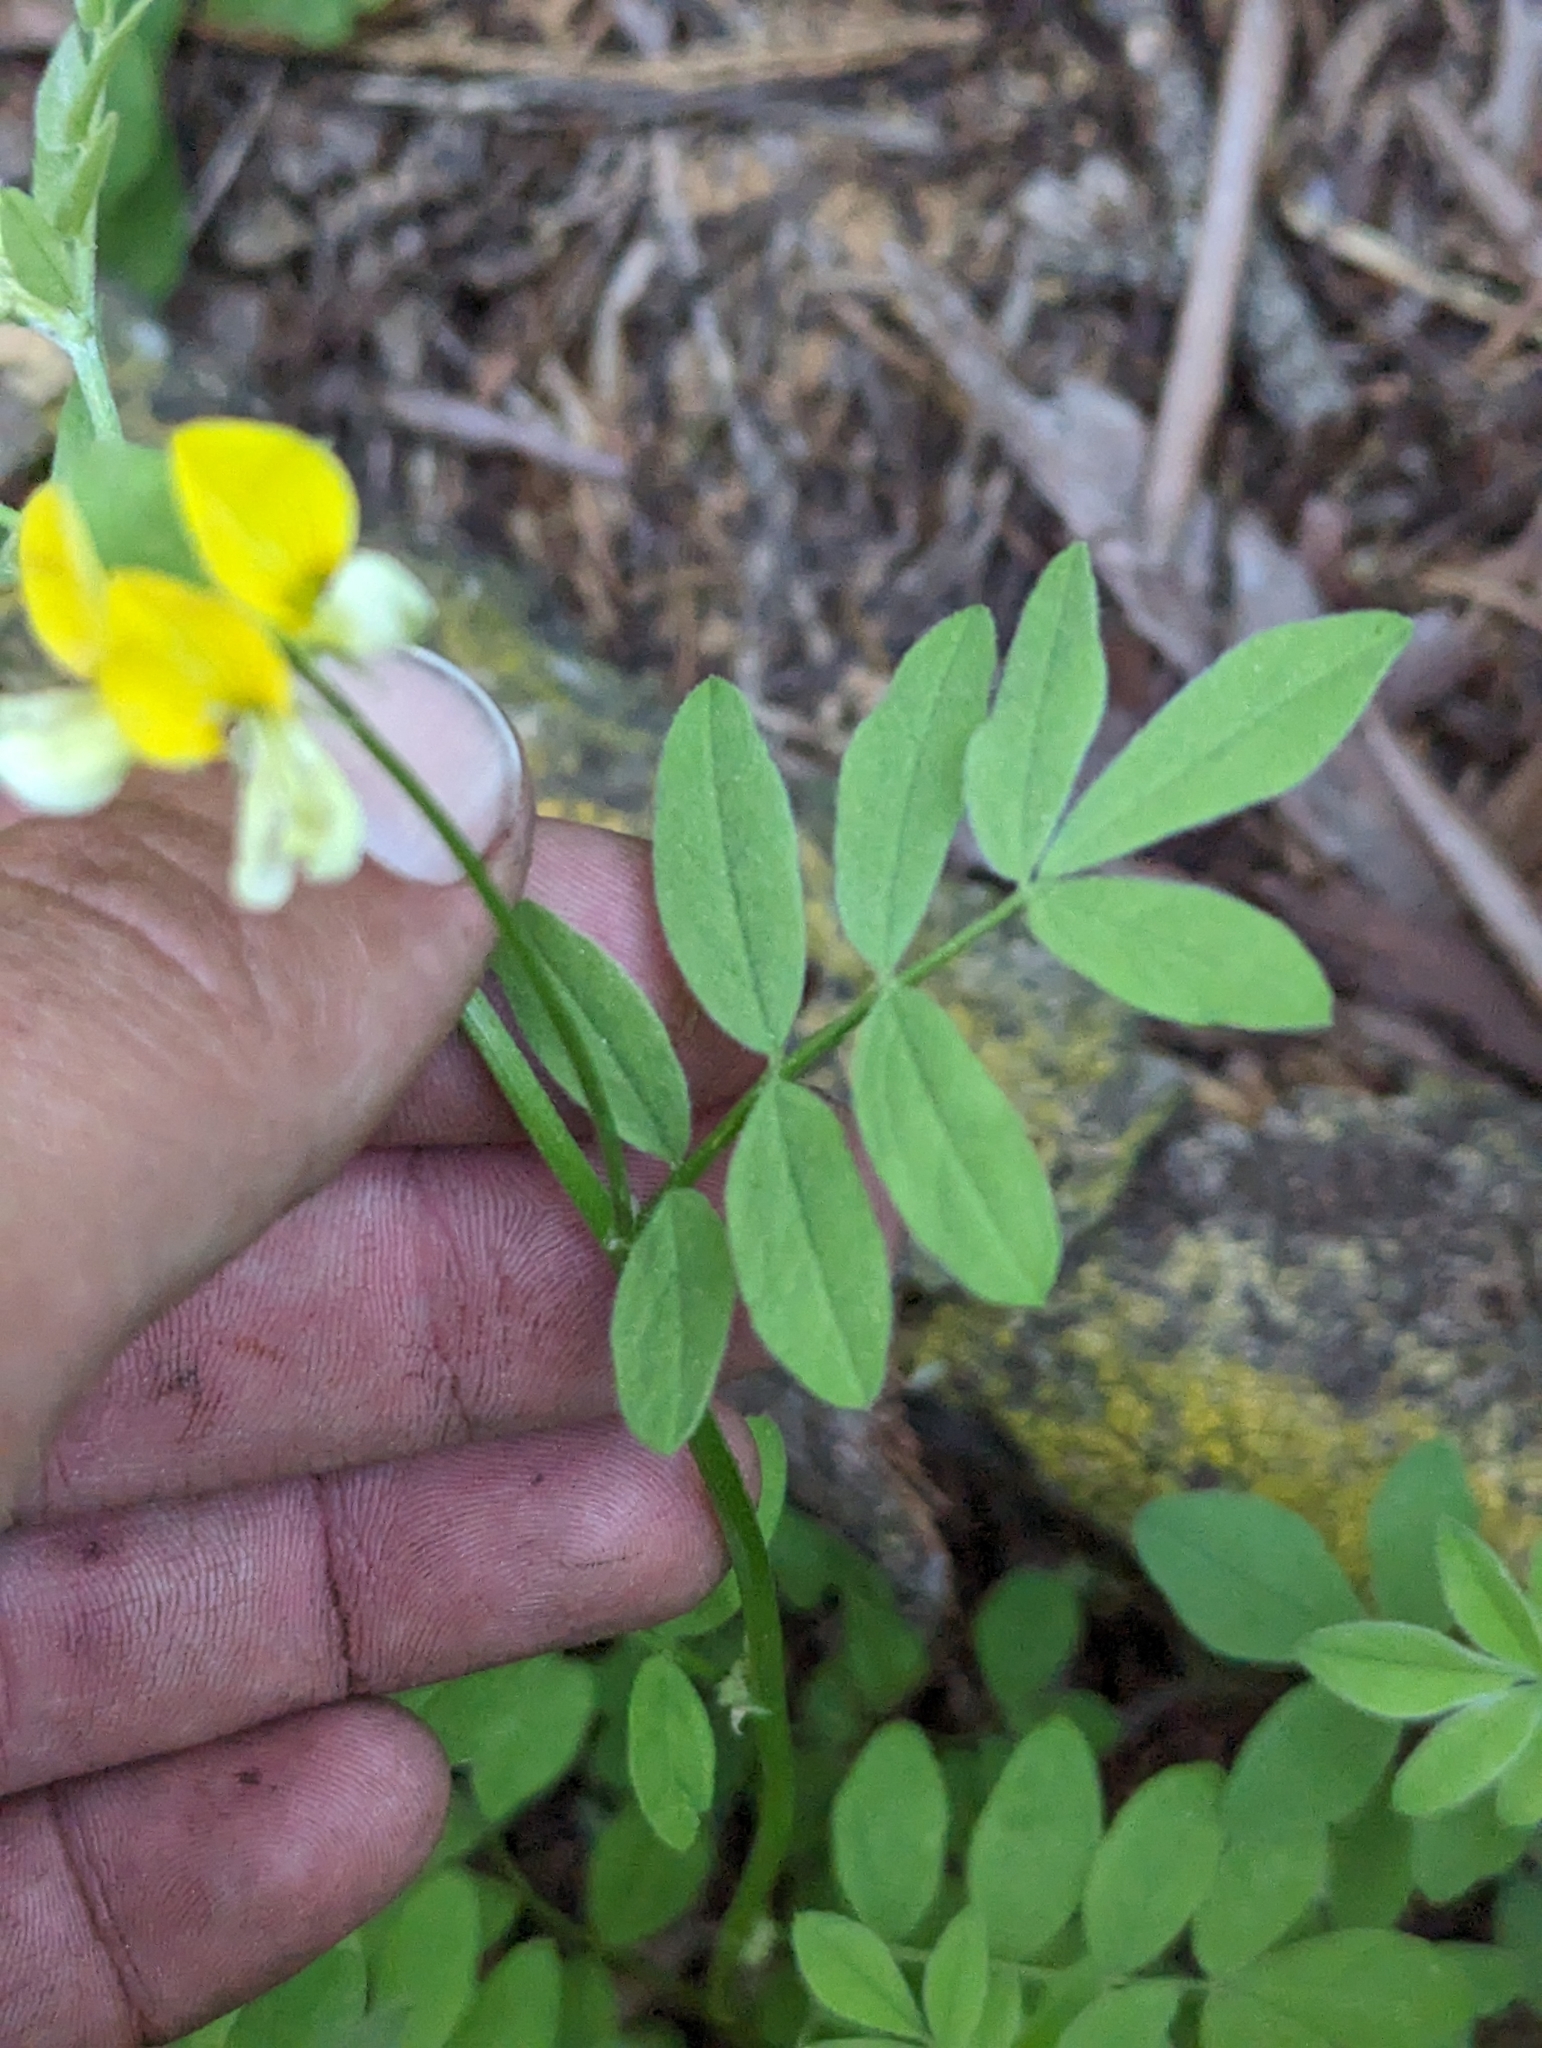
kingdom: Plantae
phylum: Tracheophyta
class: Magnoliopsida
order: Fabales
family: Fabaceae
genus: Hosackia
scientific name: Hosackia oblongifolia
